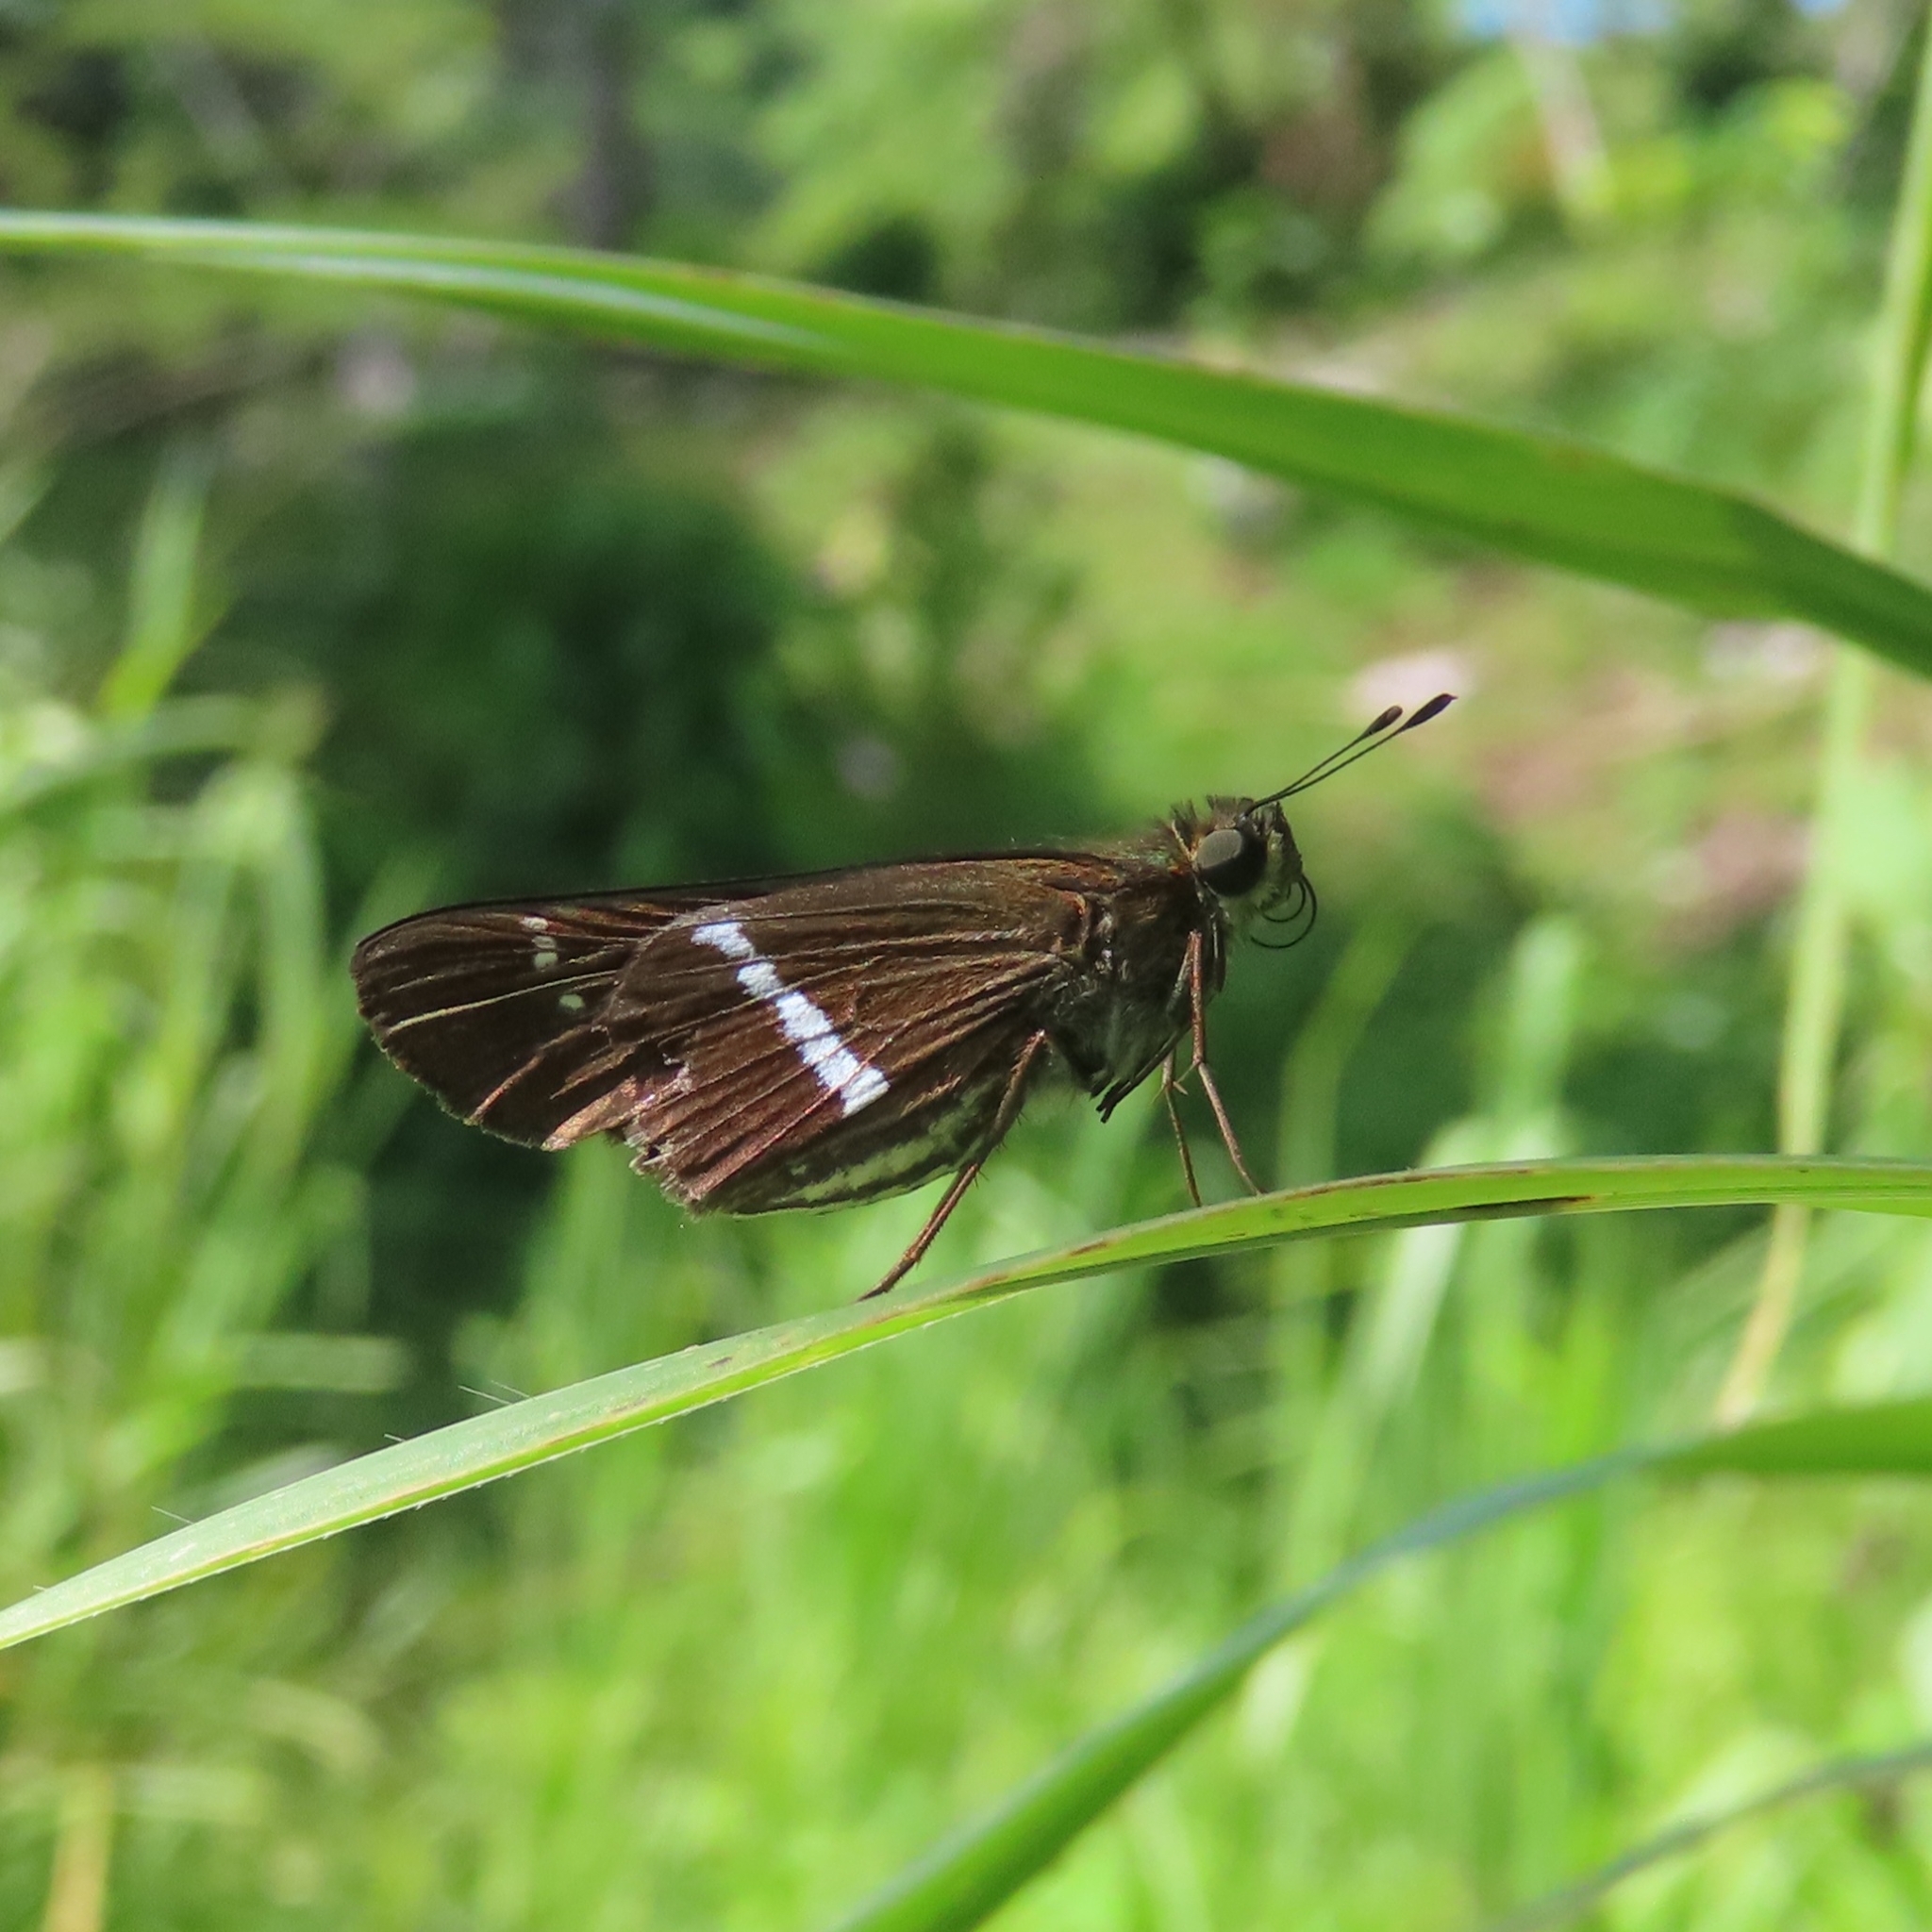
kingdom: Animalia
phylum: Arthropoda
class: Insecta
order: Lepidoptera
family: Hesperiidae
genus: Panoquina
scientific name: Panoquina nero
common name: Nero skipper
